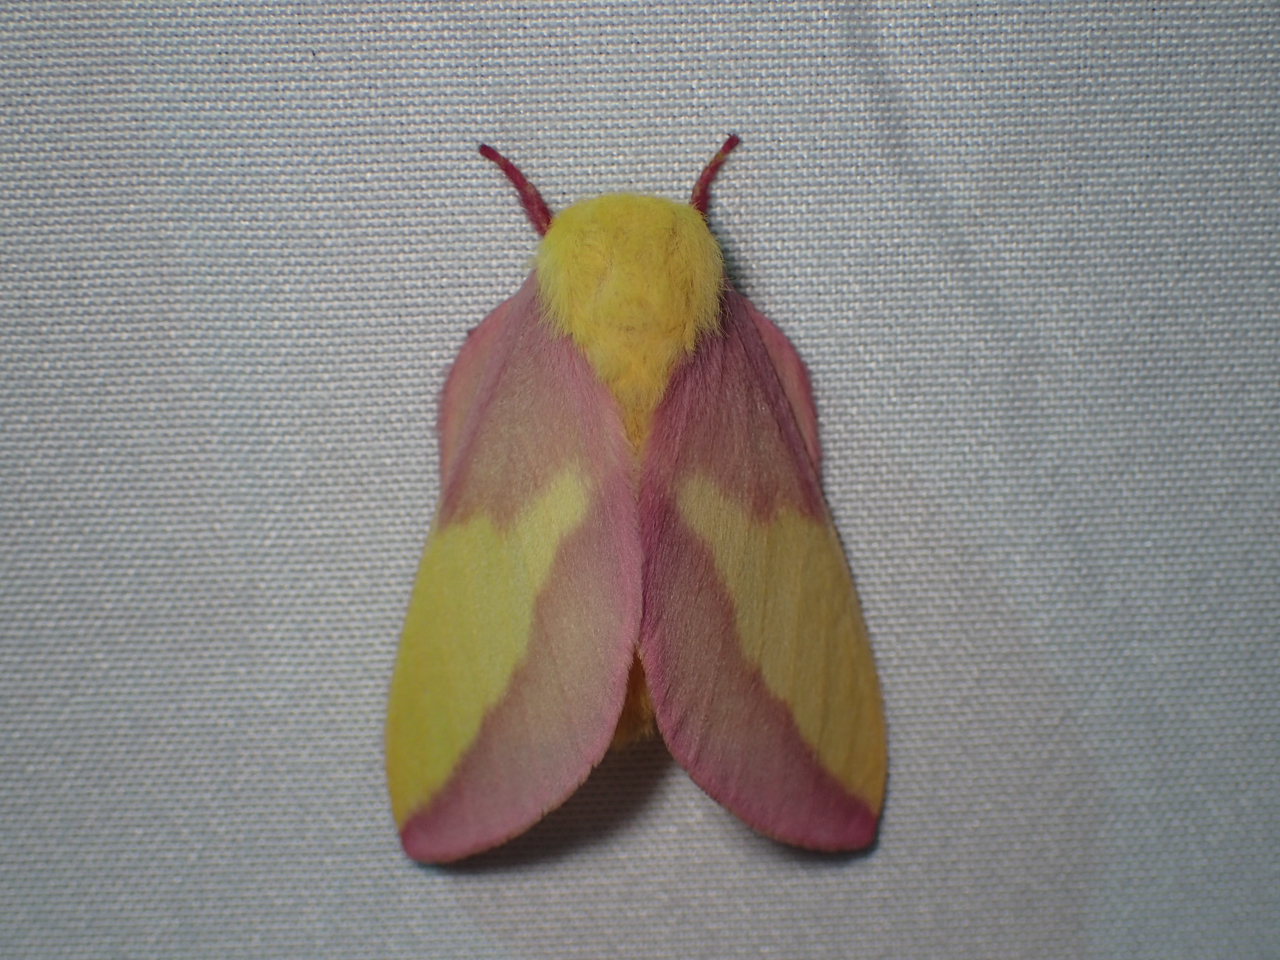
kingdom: Animalia
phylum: Arthropoda
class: Insecta
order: Lepidoptera
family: Saturniidae
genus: Dryocampa
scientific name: Dryocampa rubicunda
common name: Rosy maple moth
